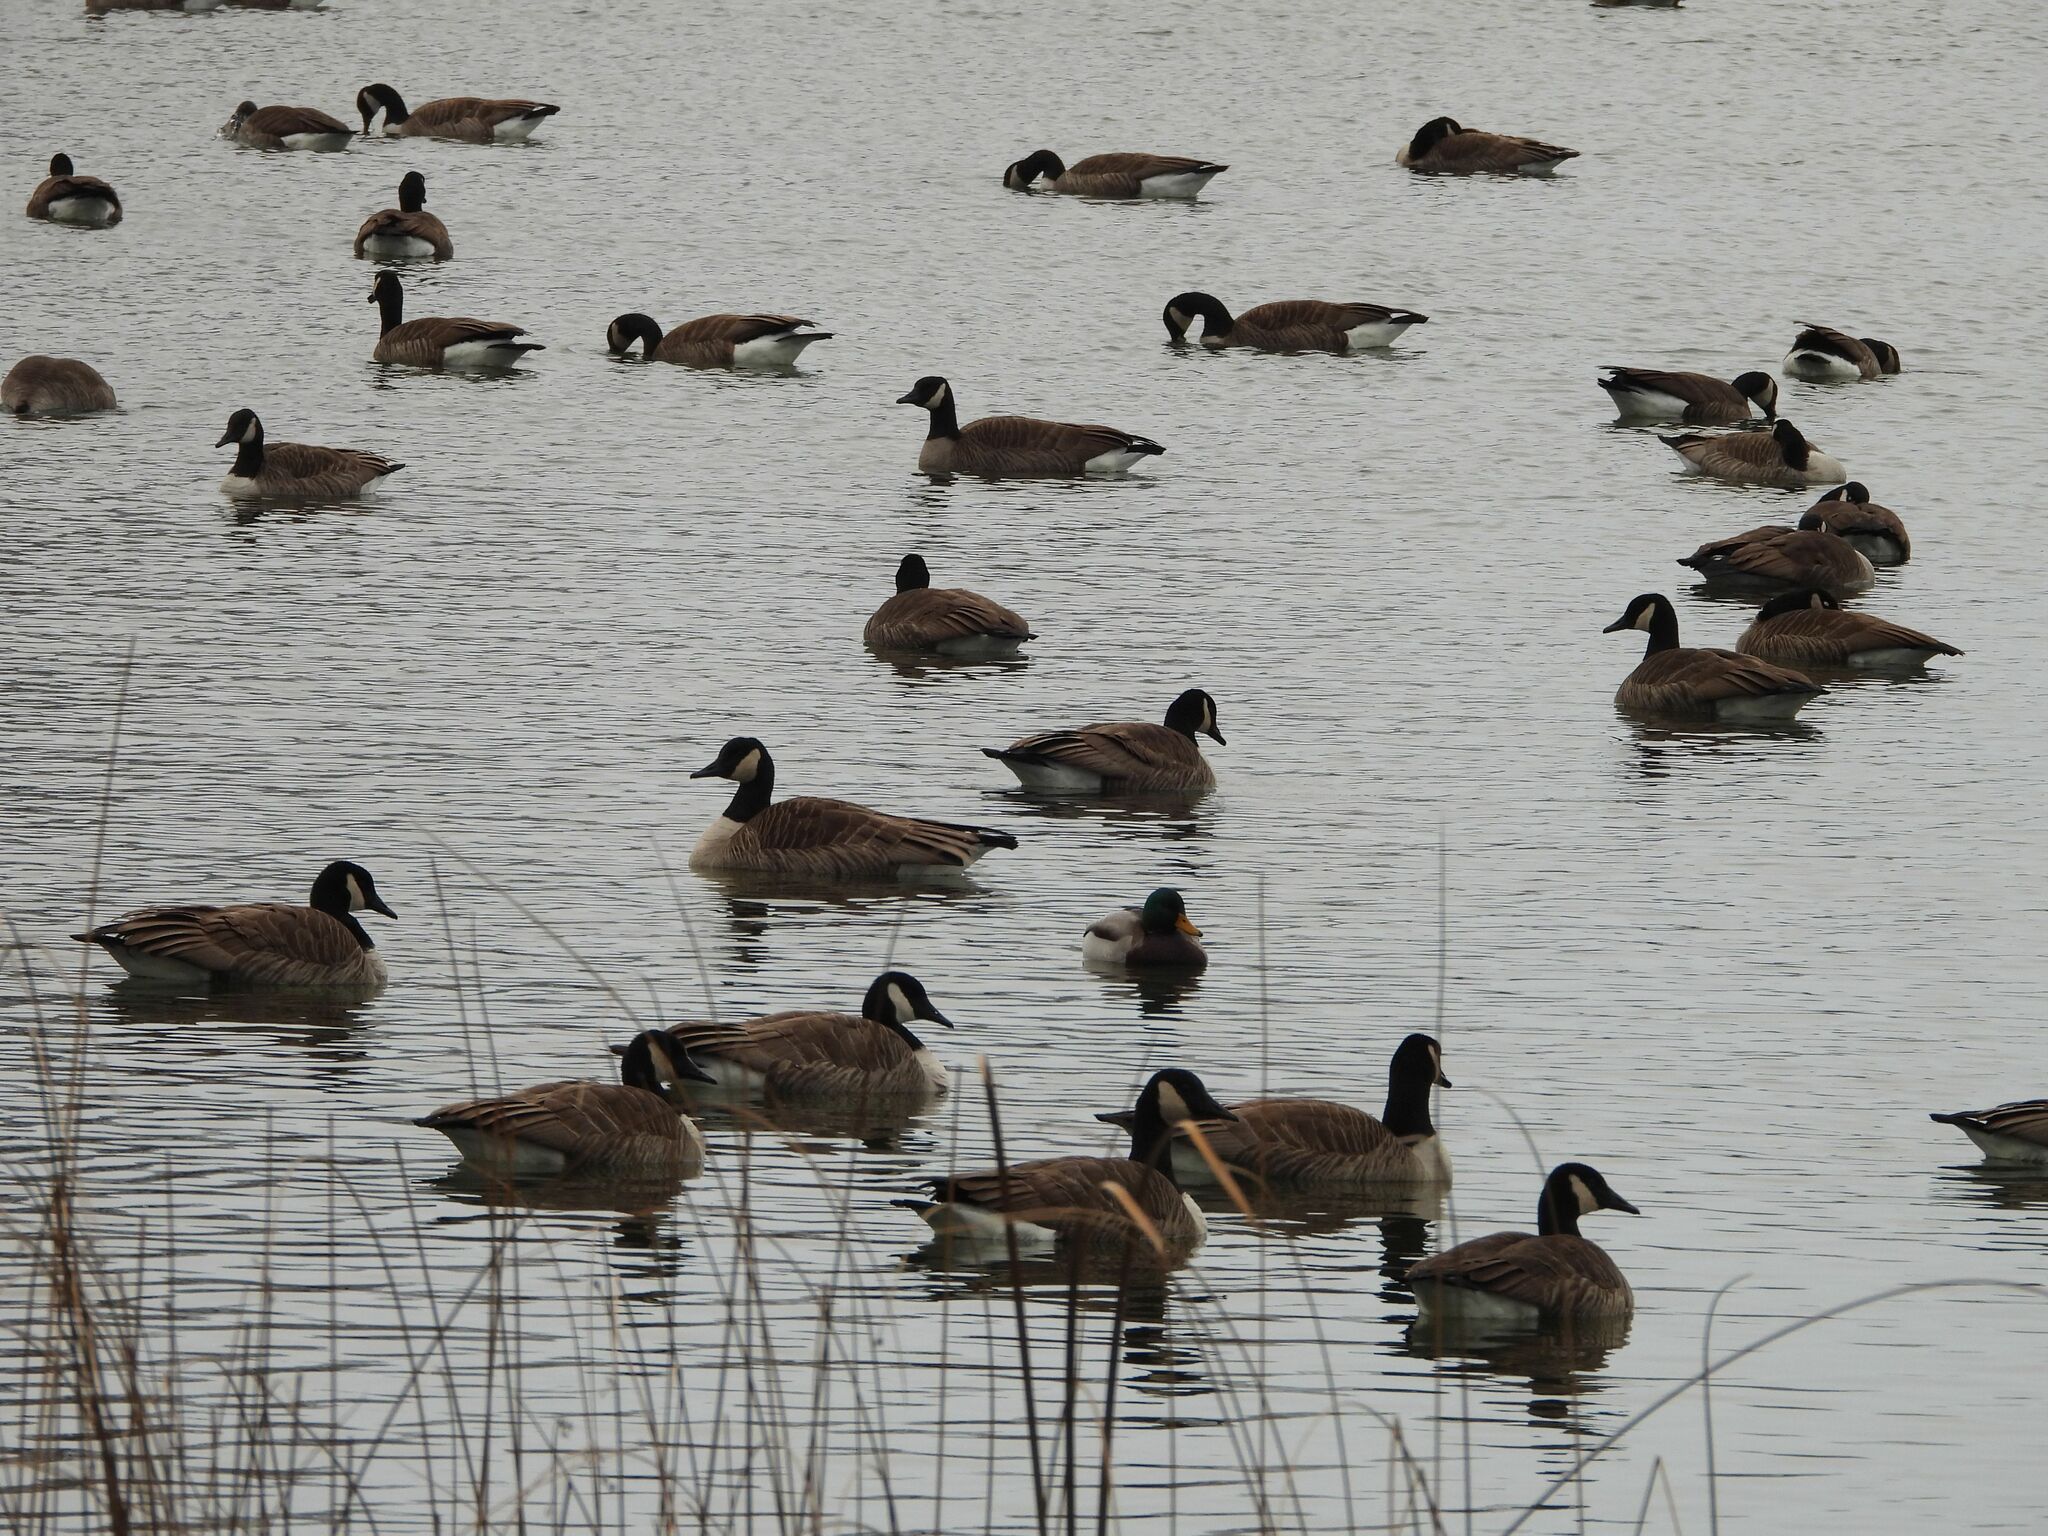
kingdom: Animalia
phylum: Chordata
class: Aves
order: Anseriformes
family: Anatidae
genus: Branta
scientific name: Branta canadensis
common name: Canada goose
